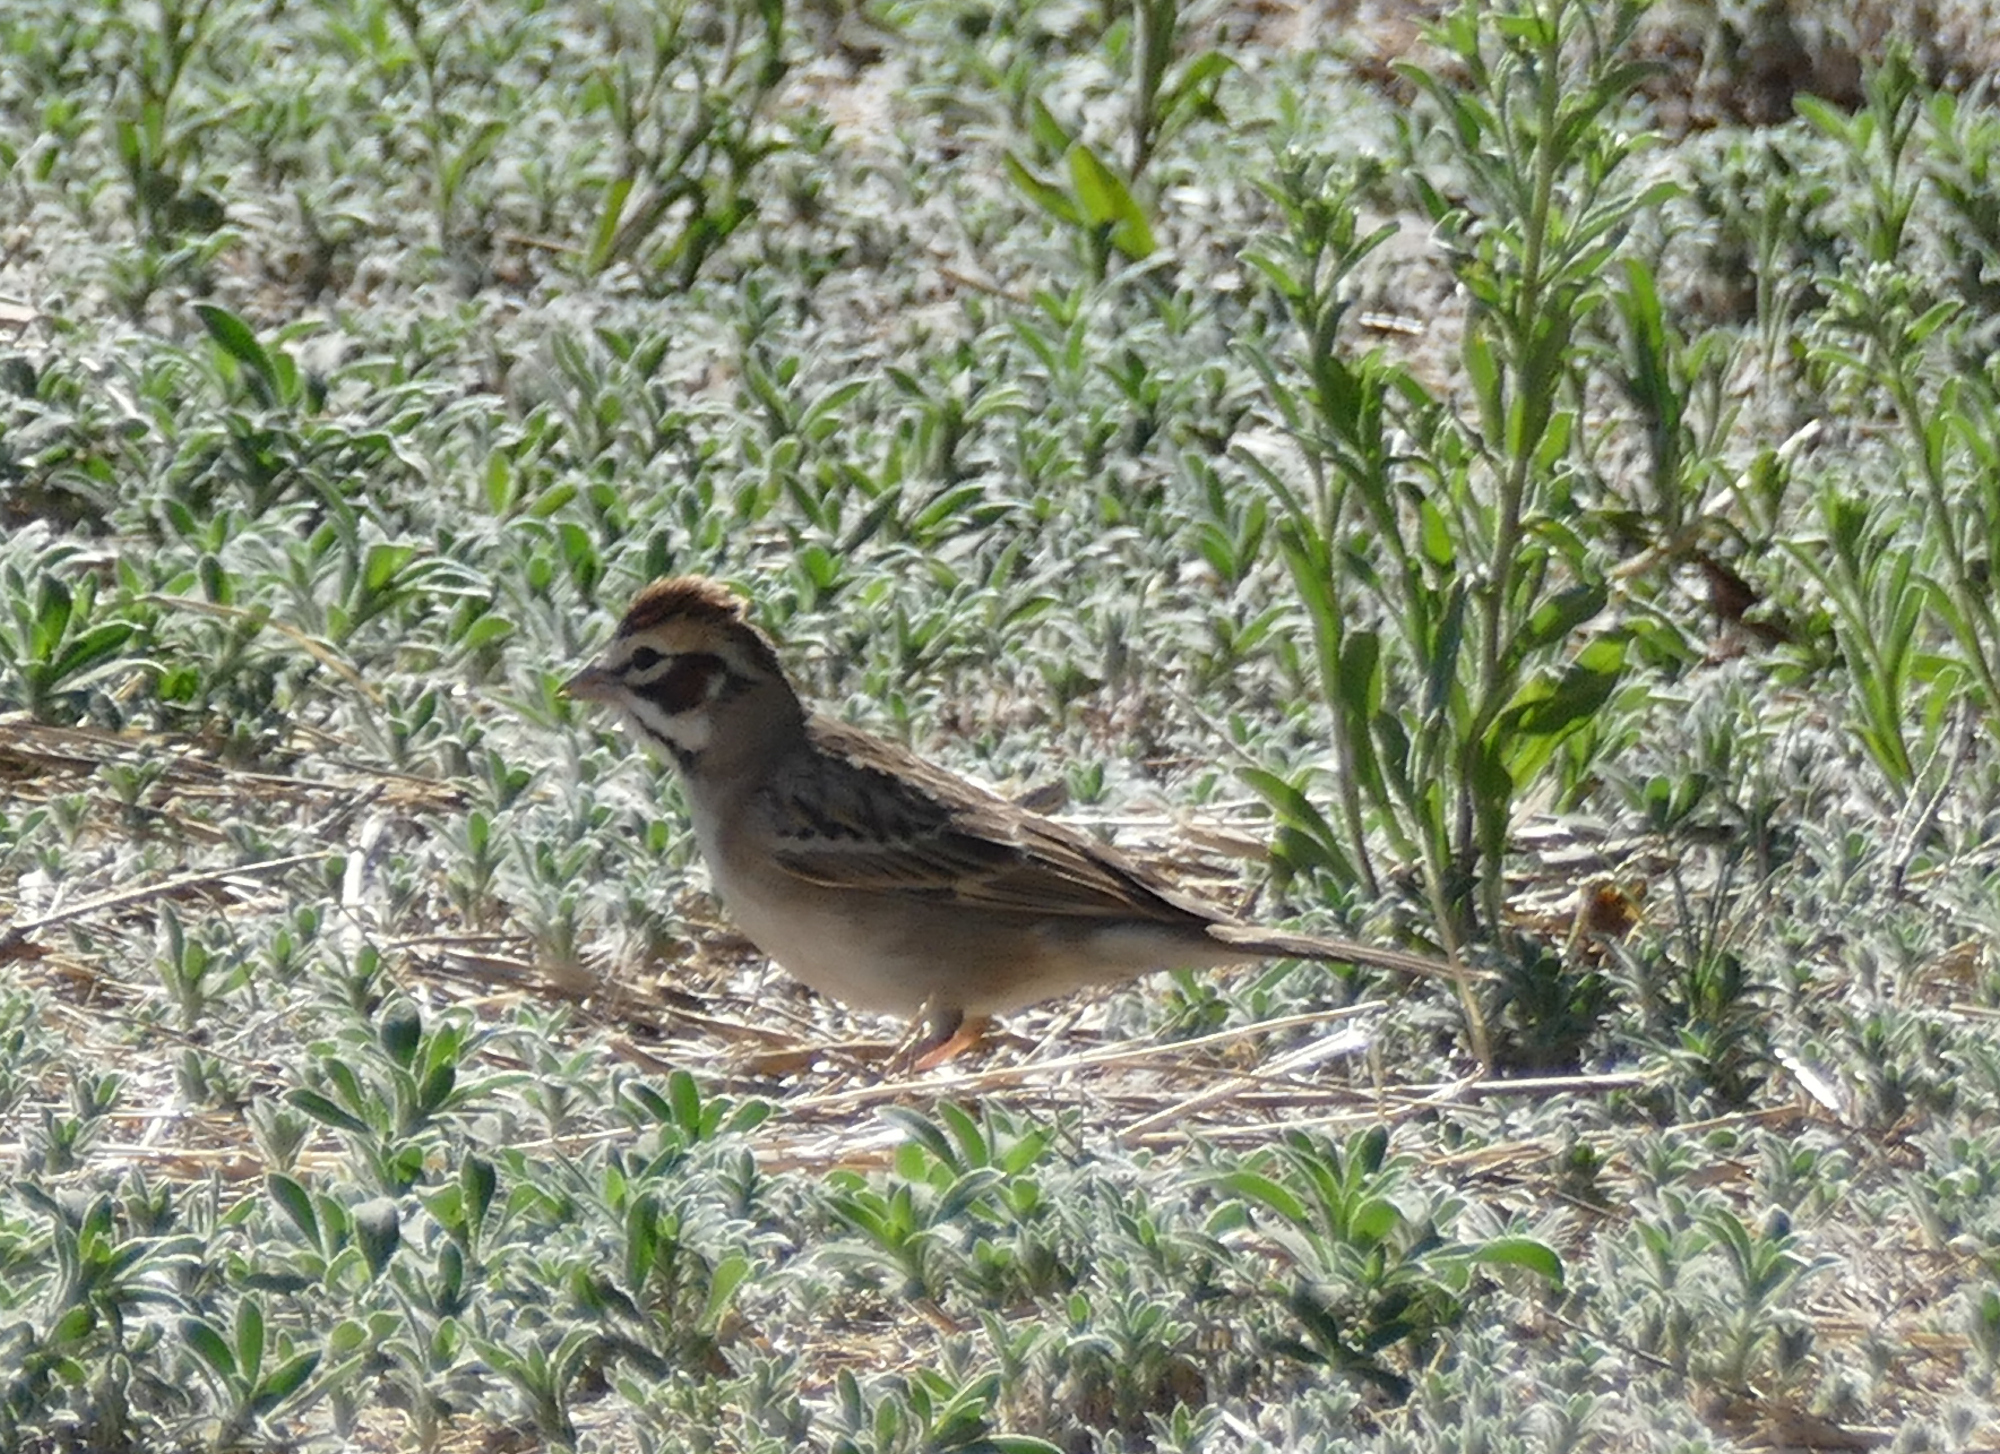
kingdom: Animalia
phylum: Chordata
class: Aves
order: Passeriformes
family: Passerellidae
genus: Chondestes
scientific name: Chondestes grammacus
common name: Lark sparrow
